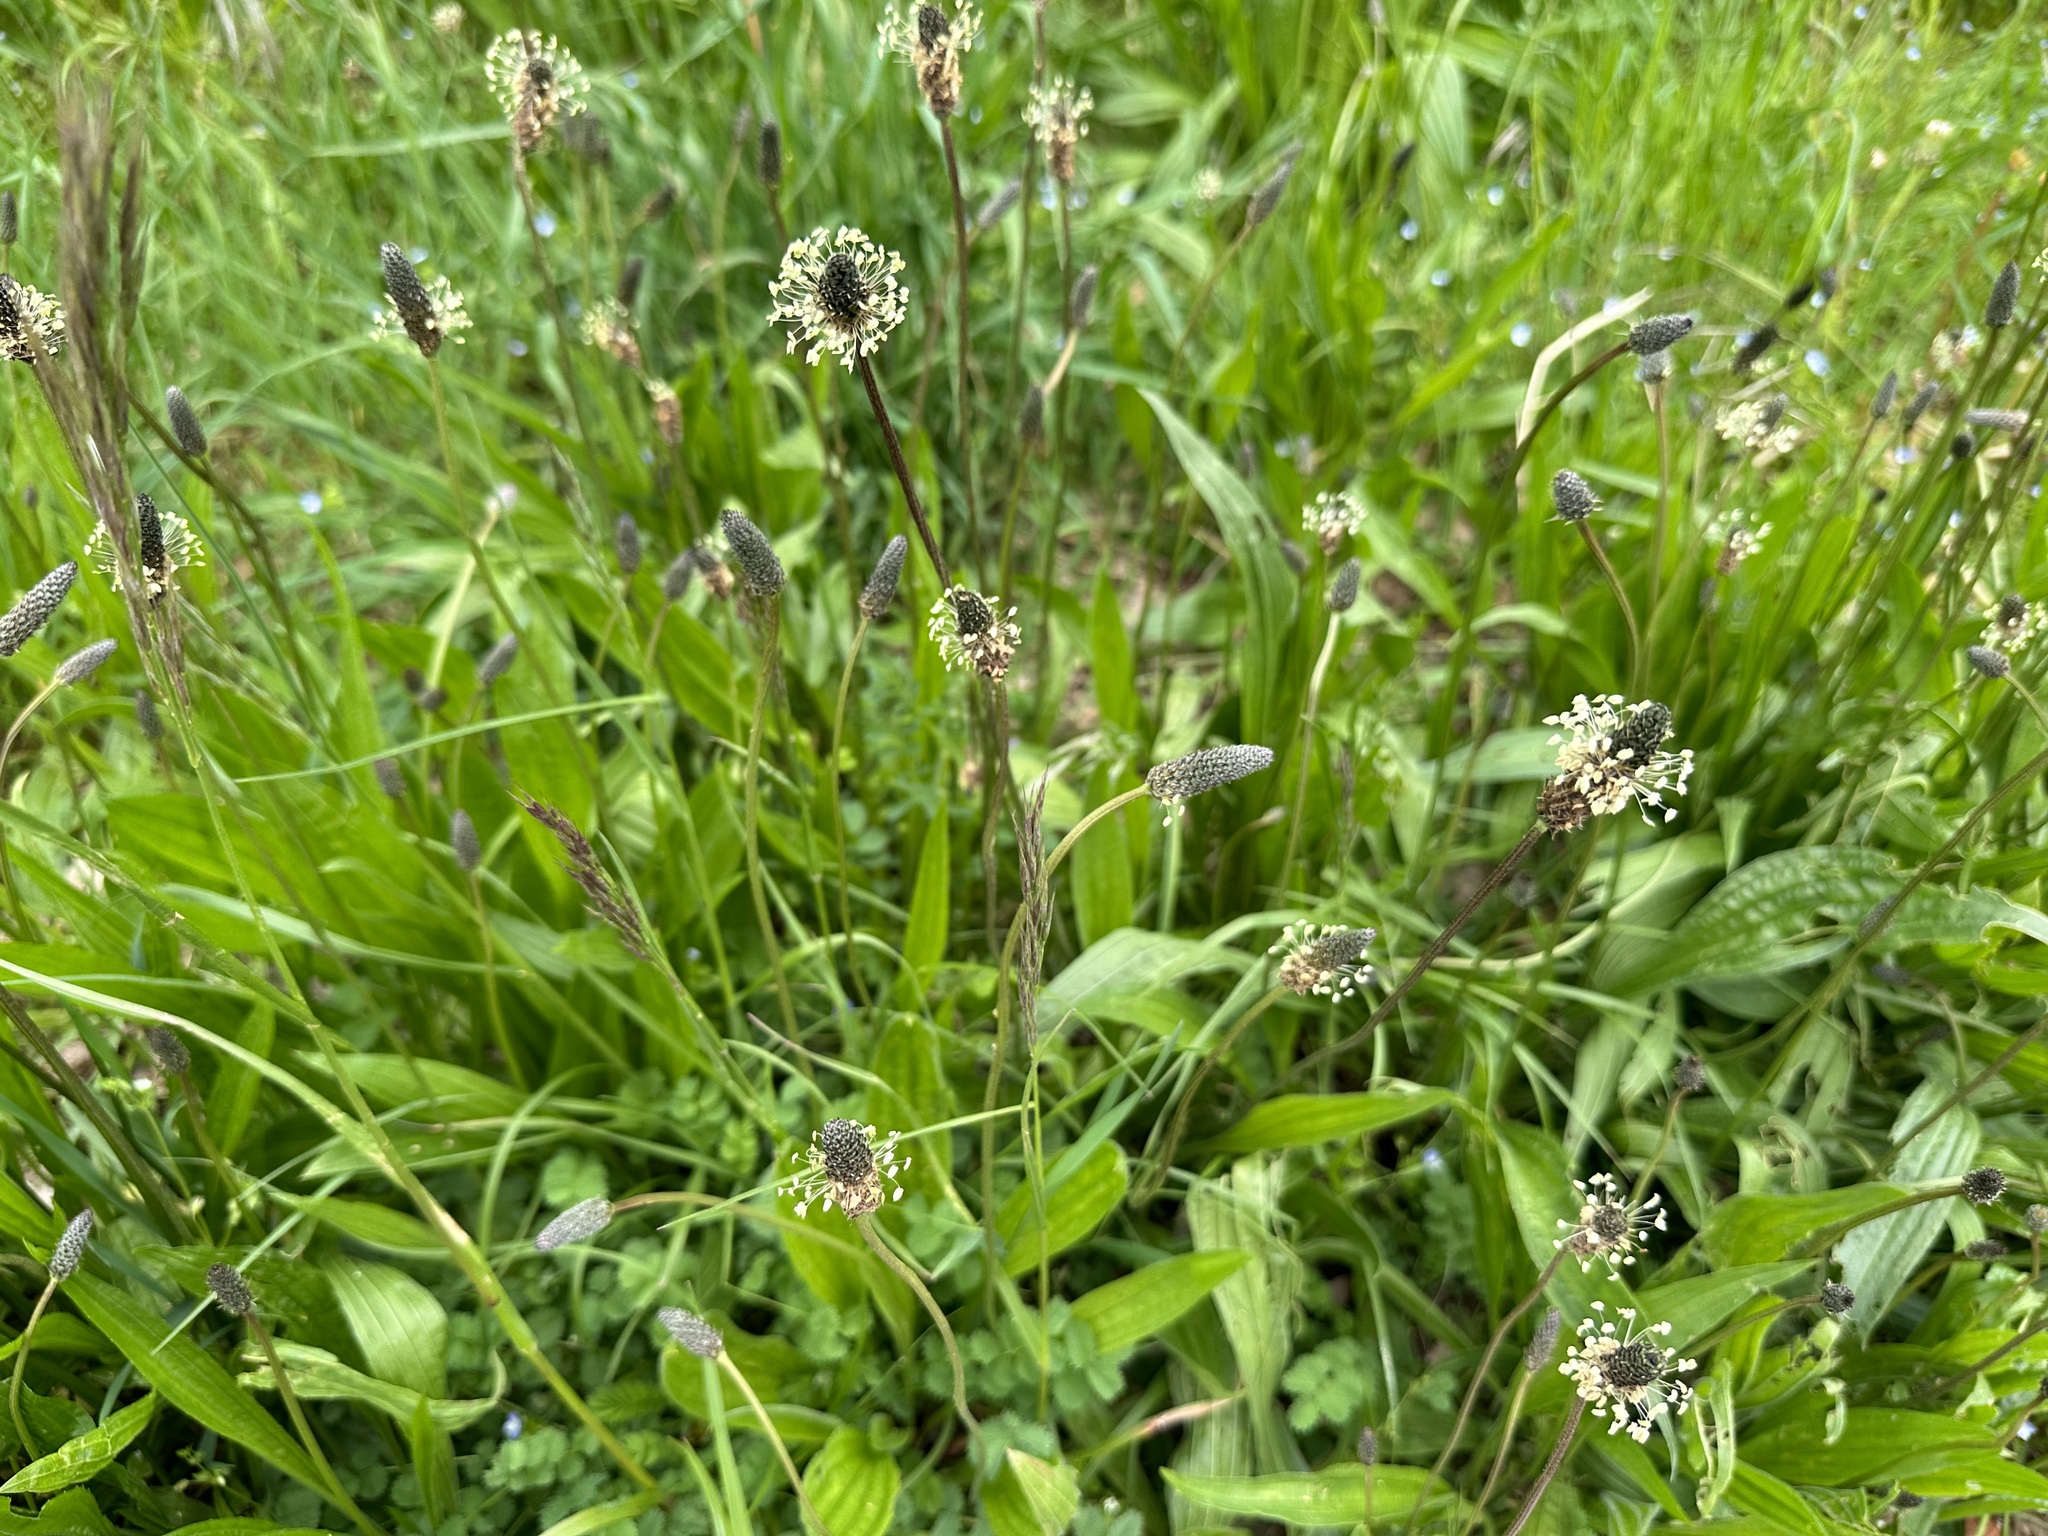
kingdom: Plantae
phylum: Tracheophyta
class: Magnoliopsida
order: Lamiales
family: Plantaginaceae
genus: Plantago
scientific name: Plantago lanceolata
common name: Ribwort plantain
